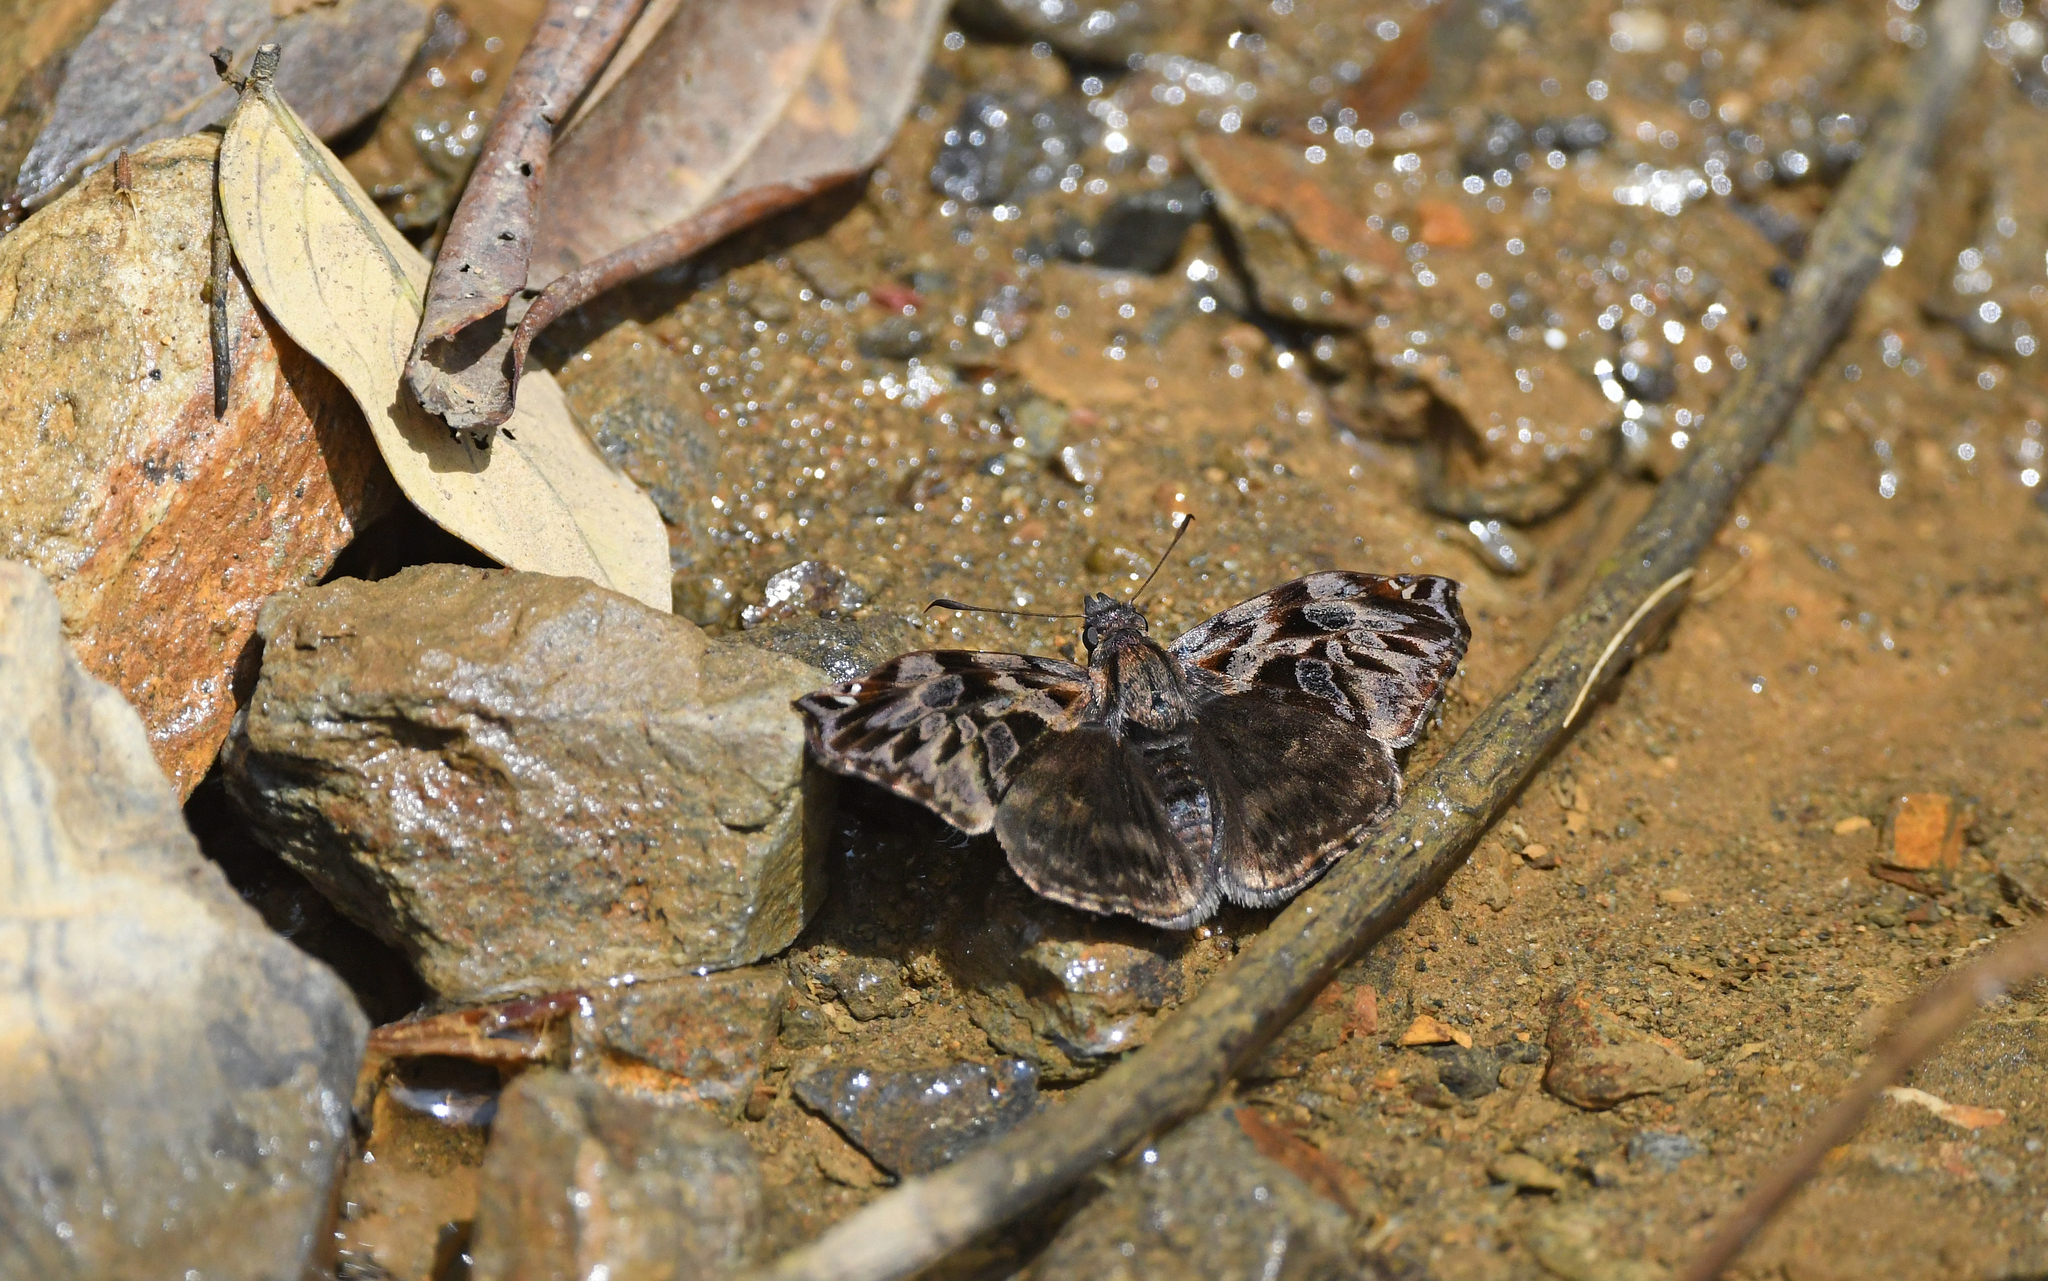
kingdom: Animalia
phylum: Arthropoda
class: Insecta
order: Lepidoptera
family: Hesperiidae
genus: Noctuana
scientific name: Noctuana haematospila
